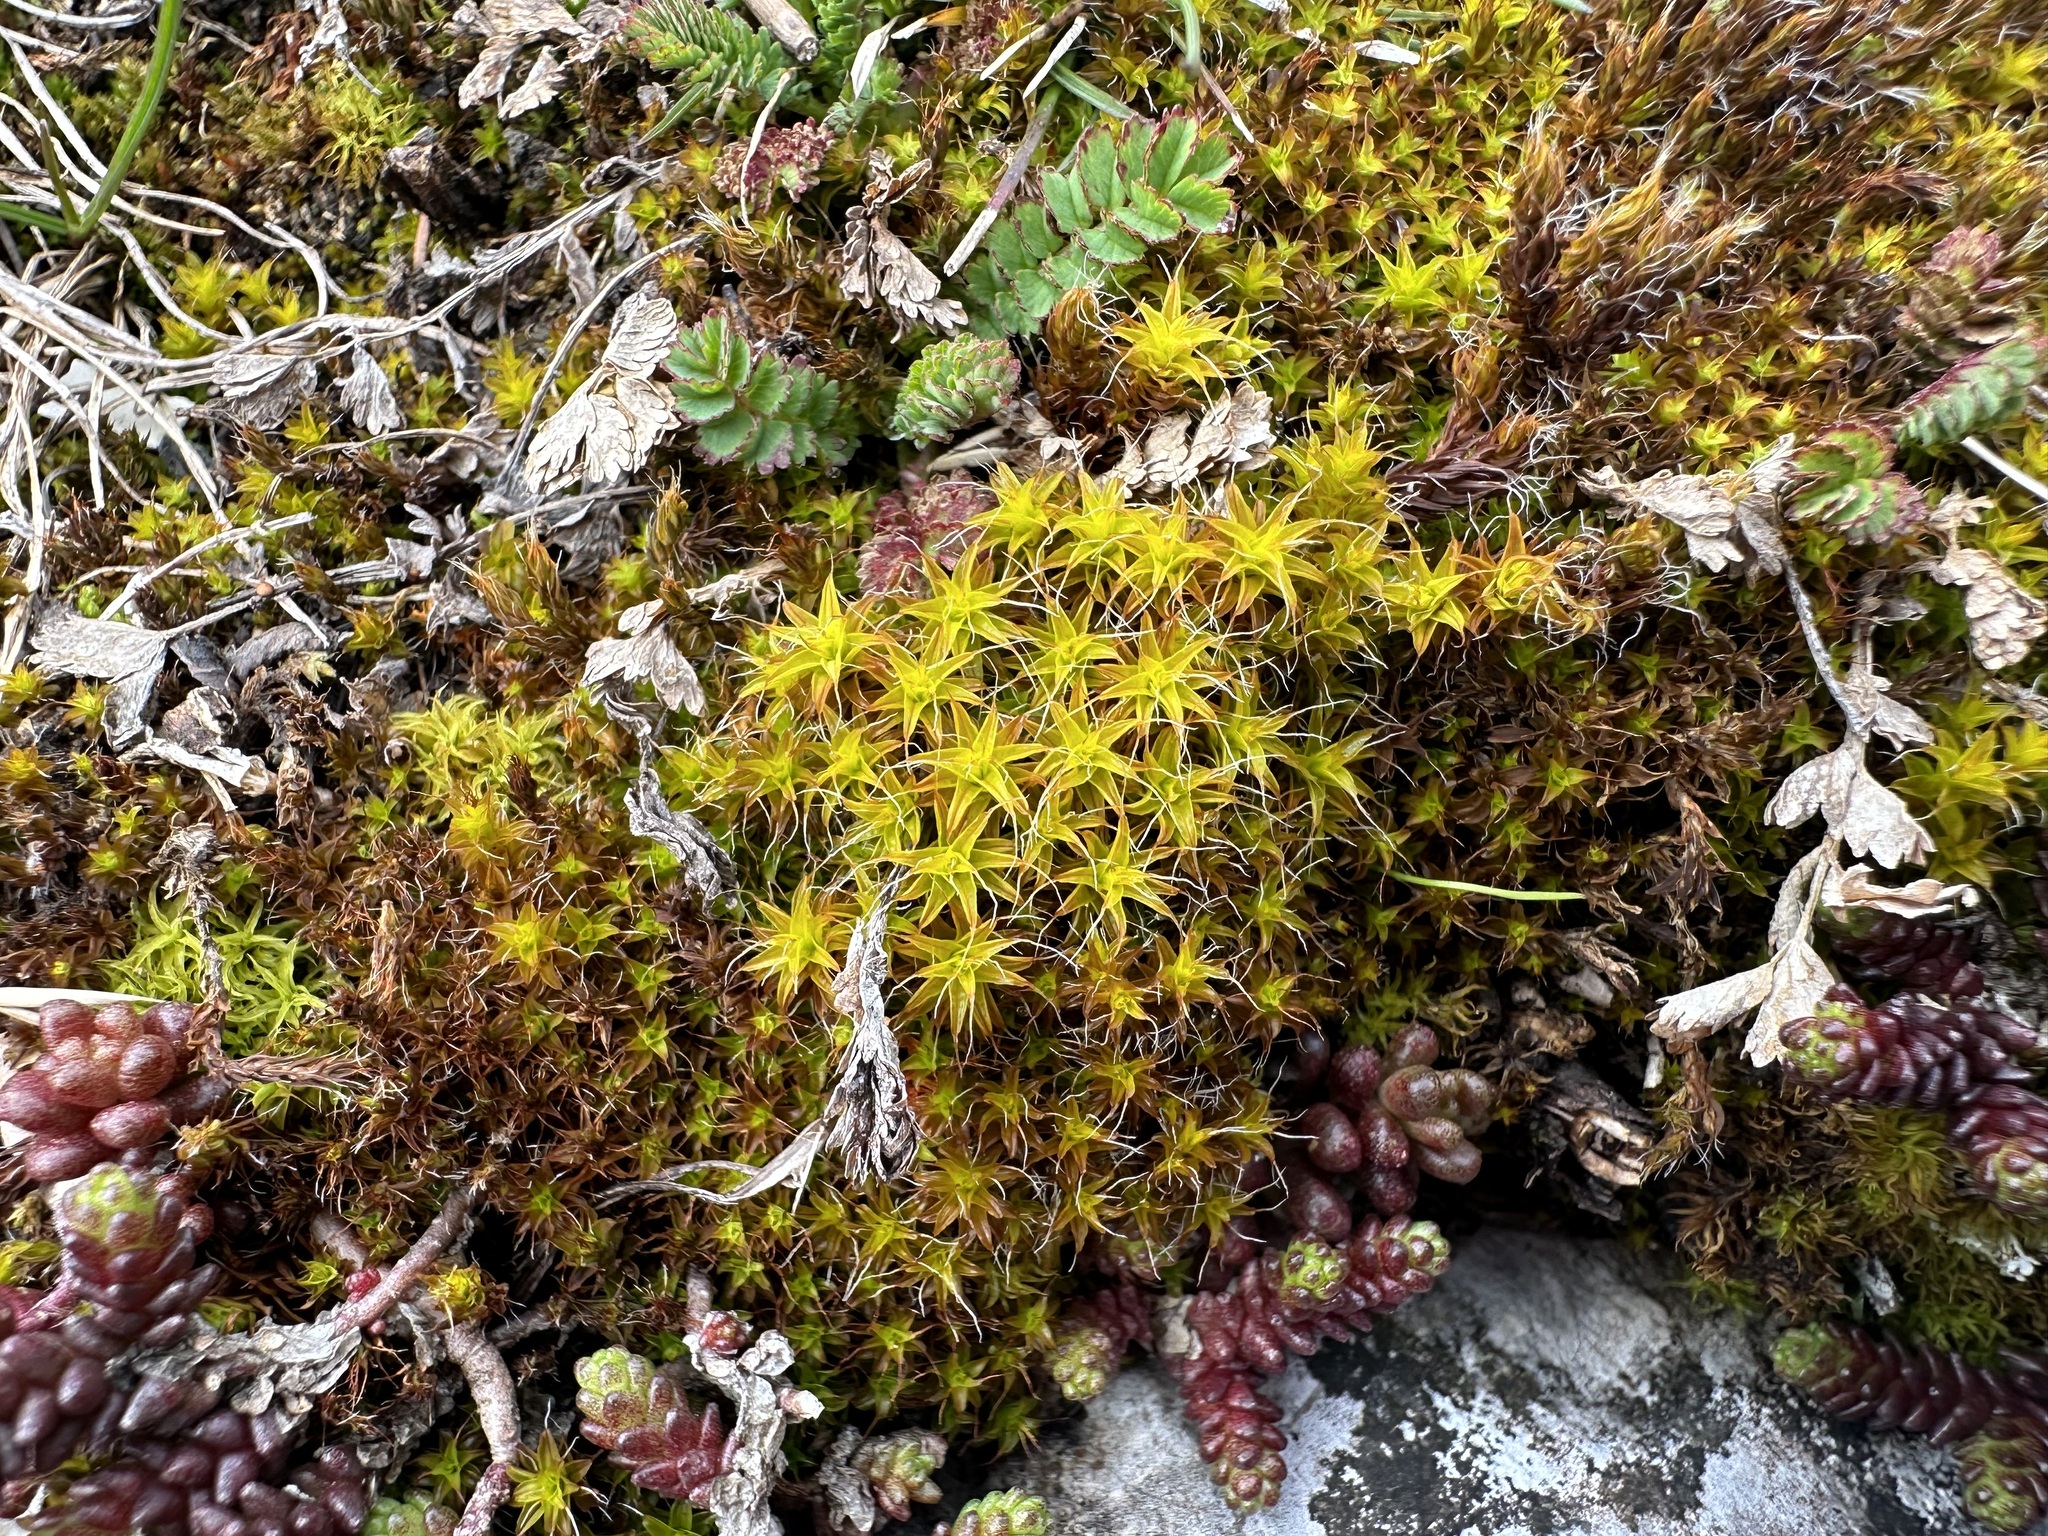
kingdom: Plantae
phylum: Bryophyta
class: Bryopsida
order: Pottiales
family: Pottiaceae
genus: Syntrichia
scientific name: Syntrichia ruralis
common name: Sidewalk screw moss
